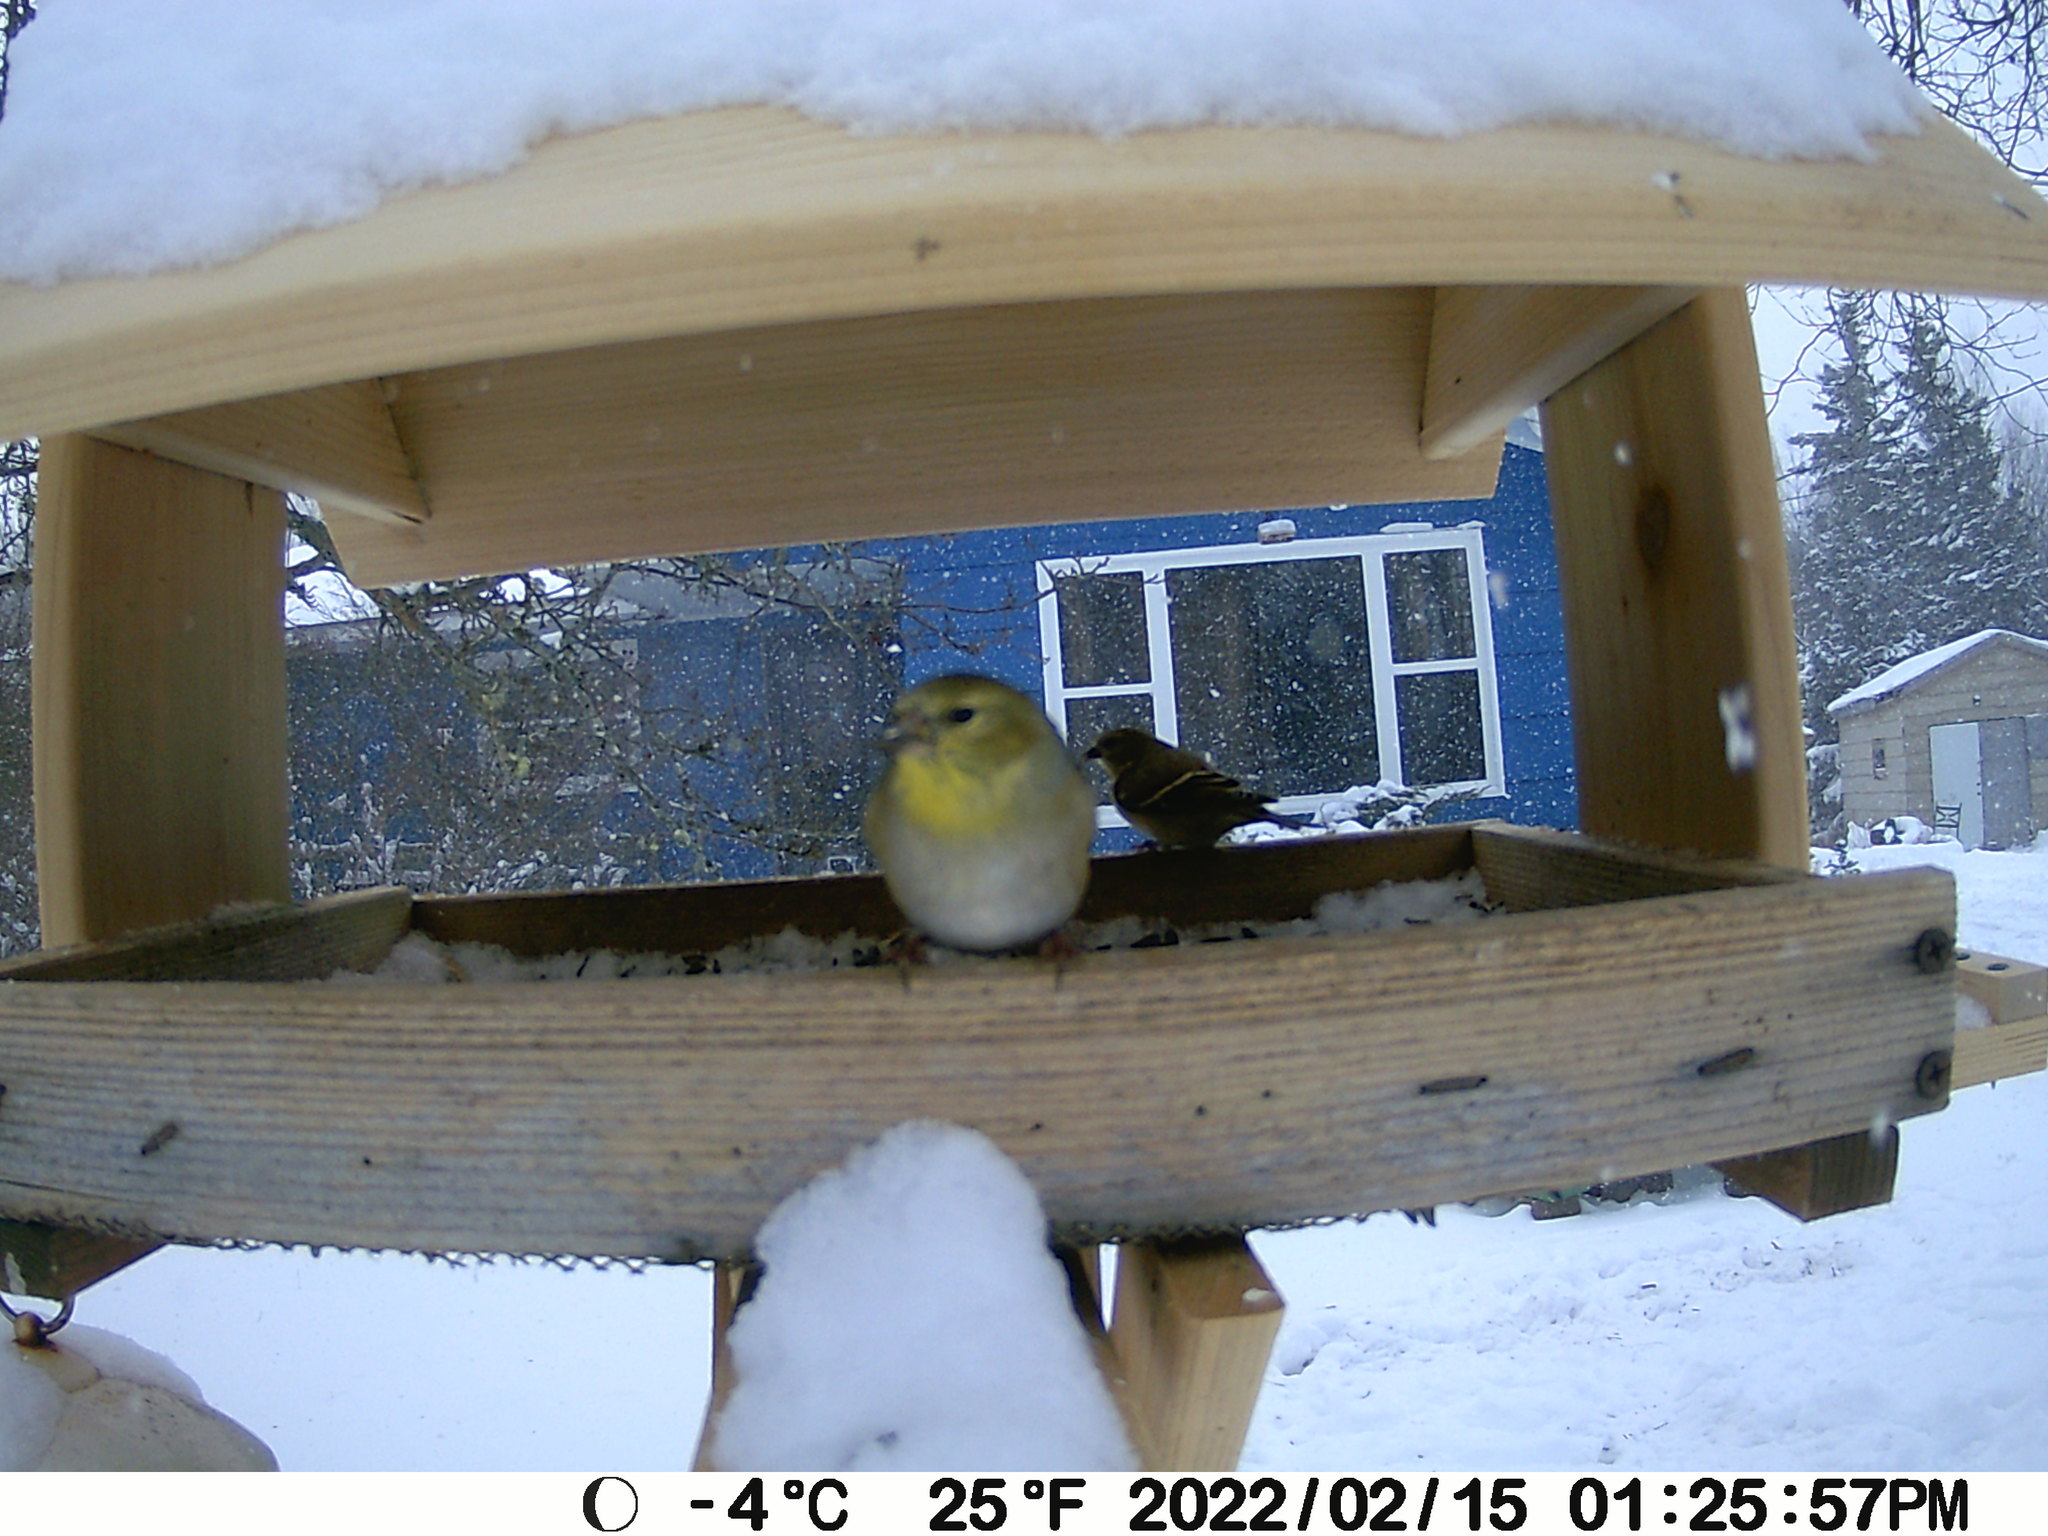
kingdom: Animalia
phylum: Chordata
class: Aves
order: Passeriformes
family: Fringillidae
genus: Spinus
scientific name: Spinus tristis
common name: American goldfinch
